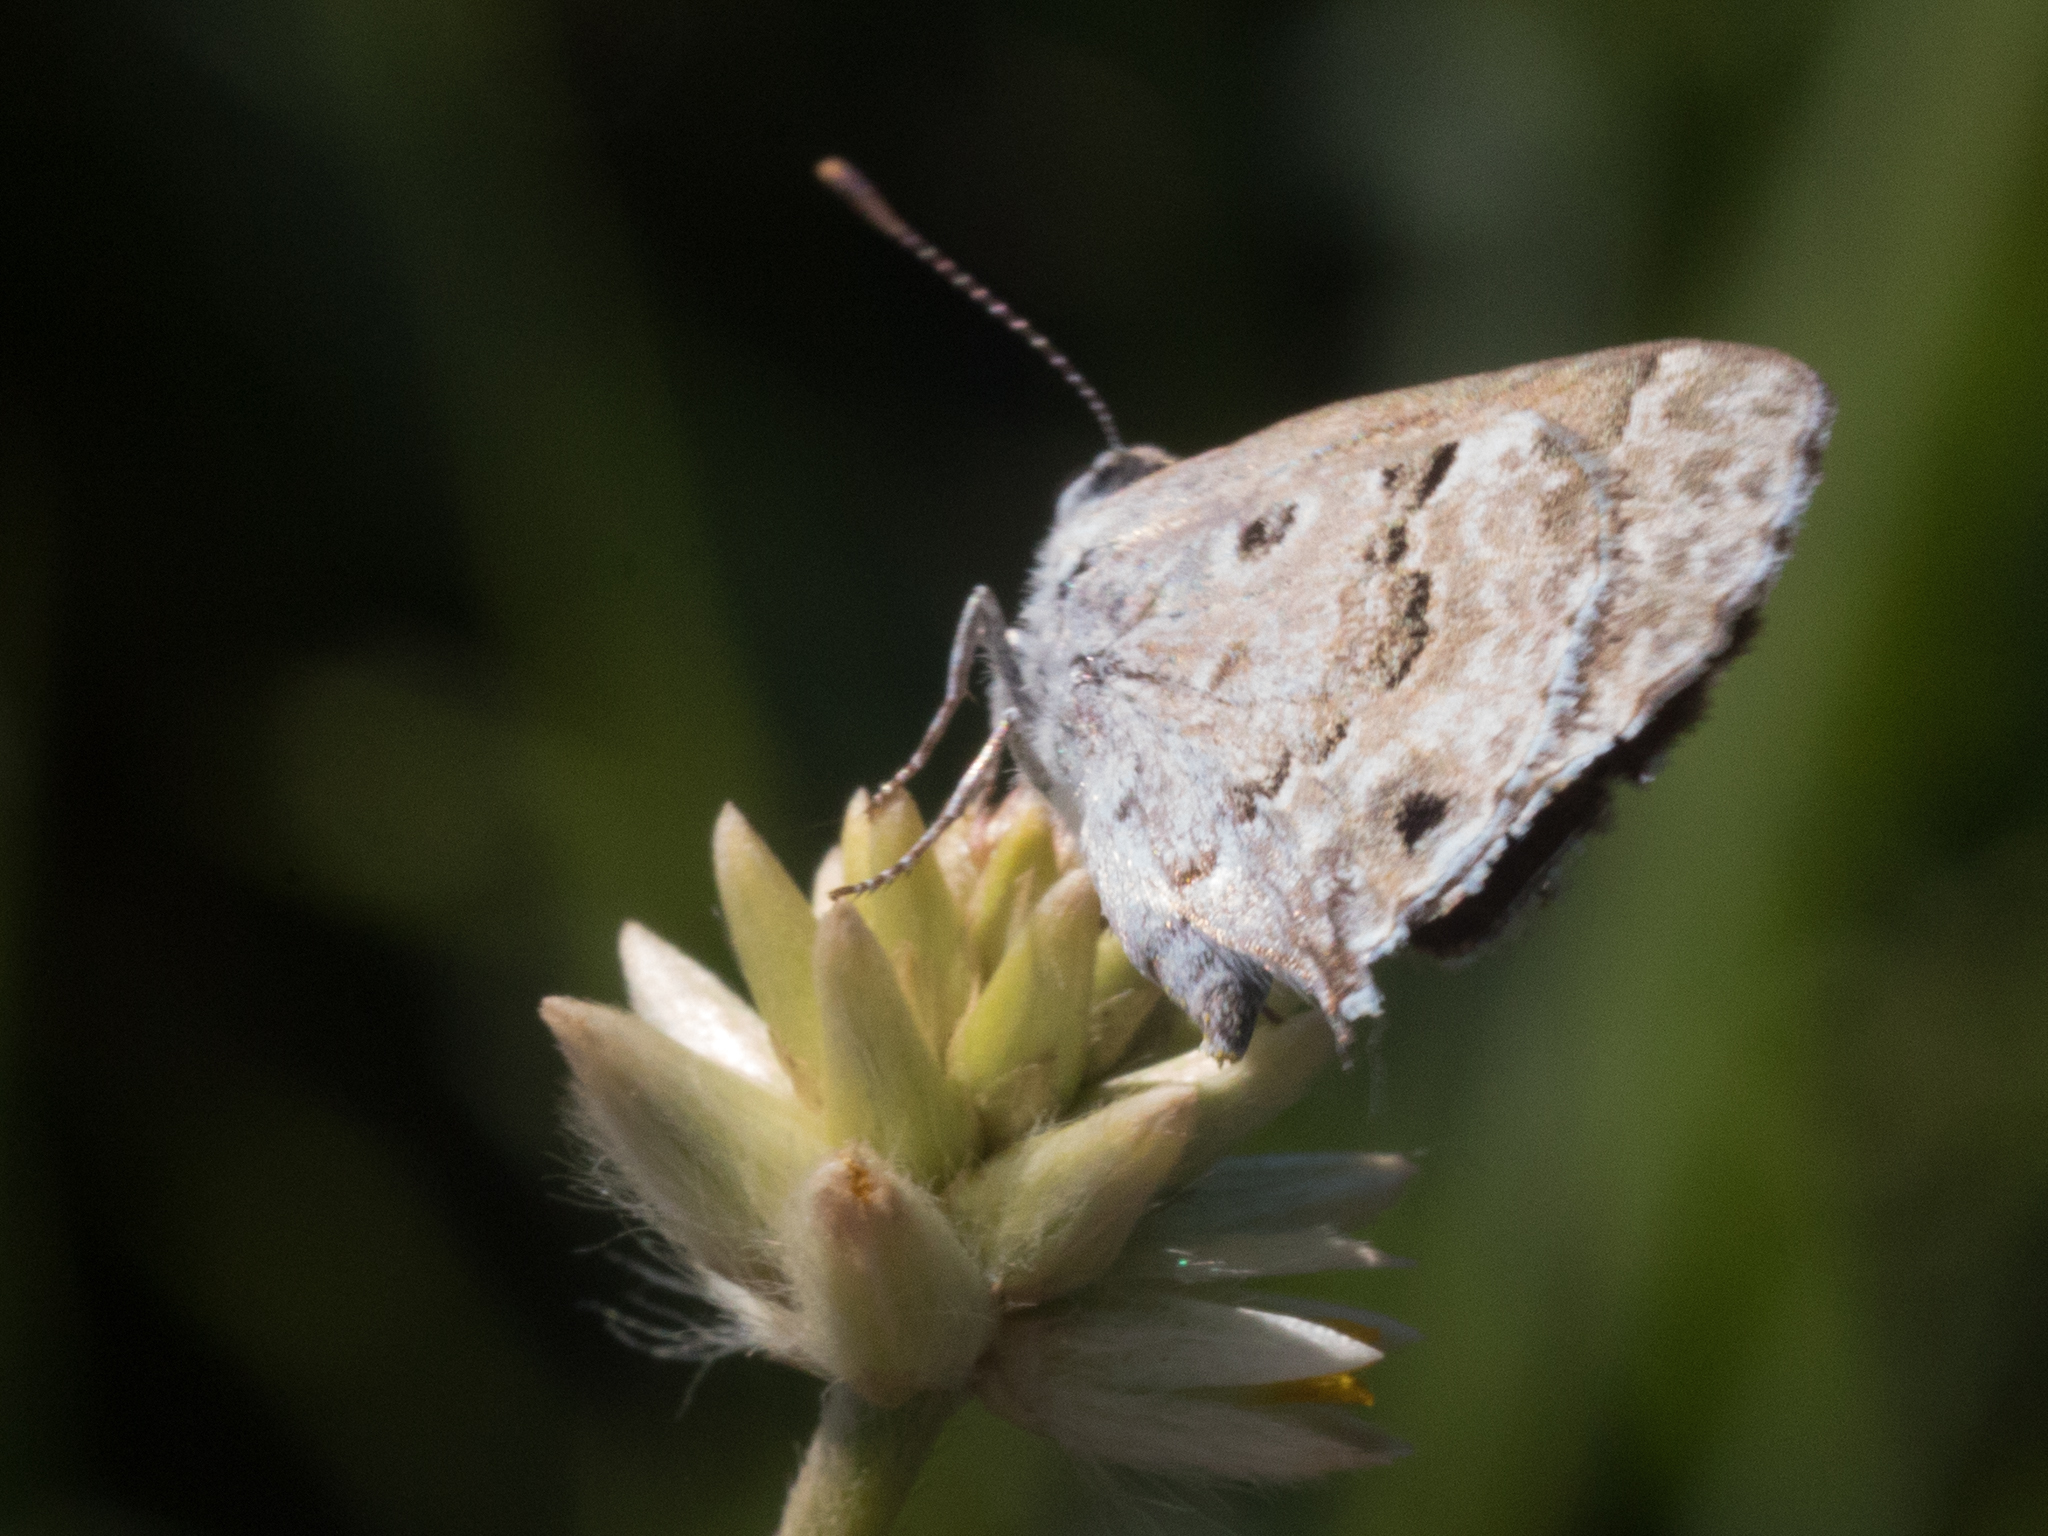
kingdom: Animalia
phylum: Arthropoda
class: Insecta
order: Lepidoptera
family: Lycaenidae
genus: Thecla
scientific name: Thecla cestri
